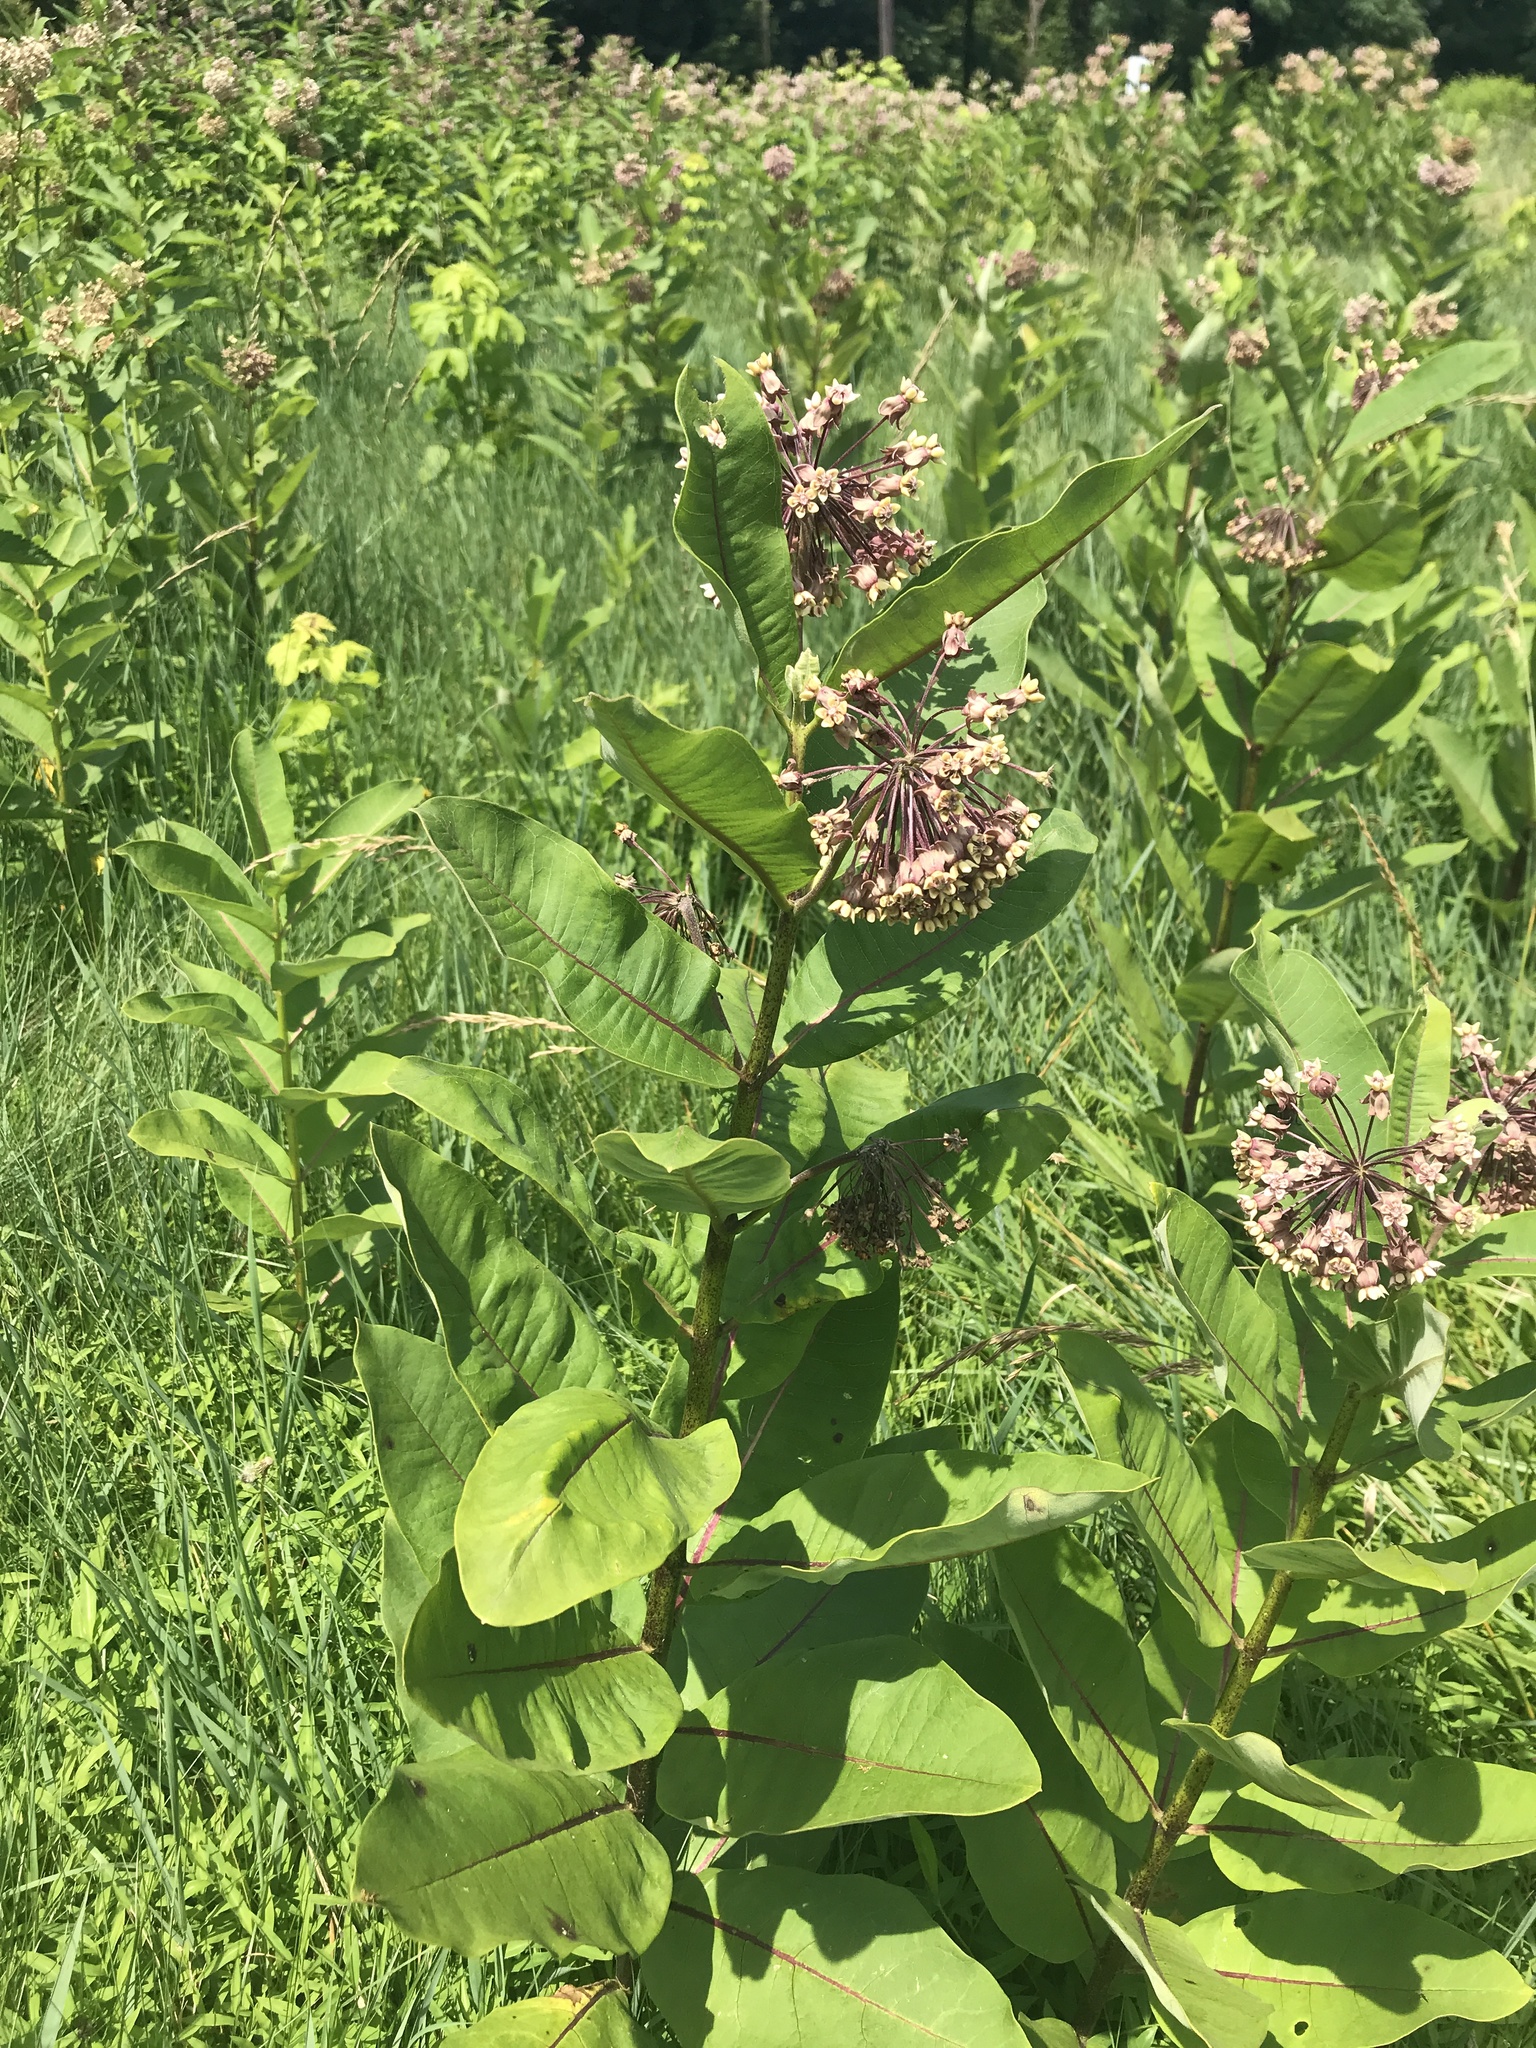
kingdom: Plantae
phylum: Tracheophyta
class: Magnoliopsida
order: Gentianales
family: Apocynaceae
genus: Asclepias
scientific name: Asclepias syriaca
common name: Common milkweed
